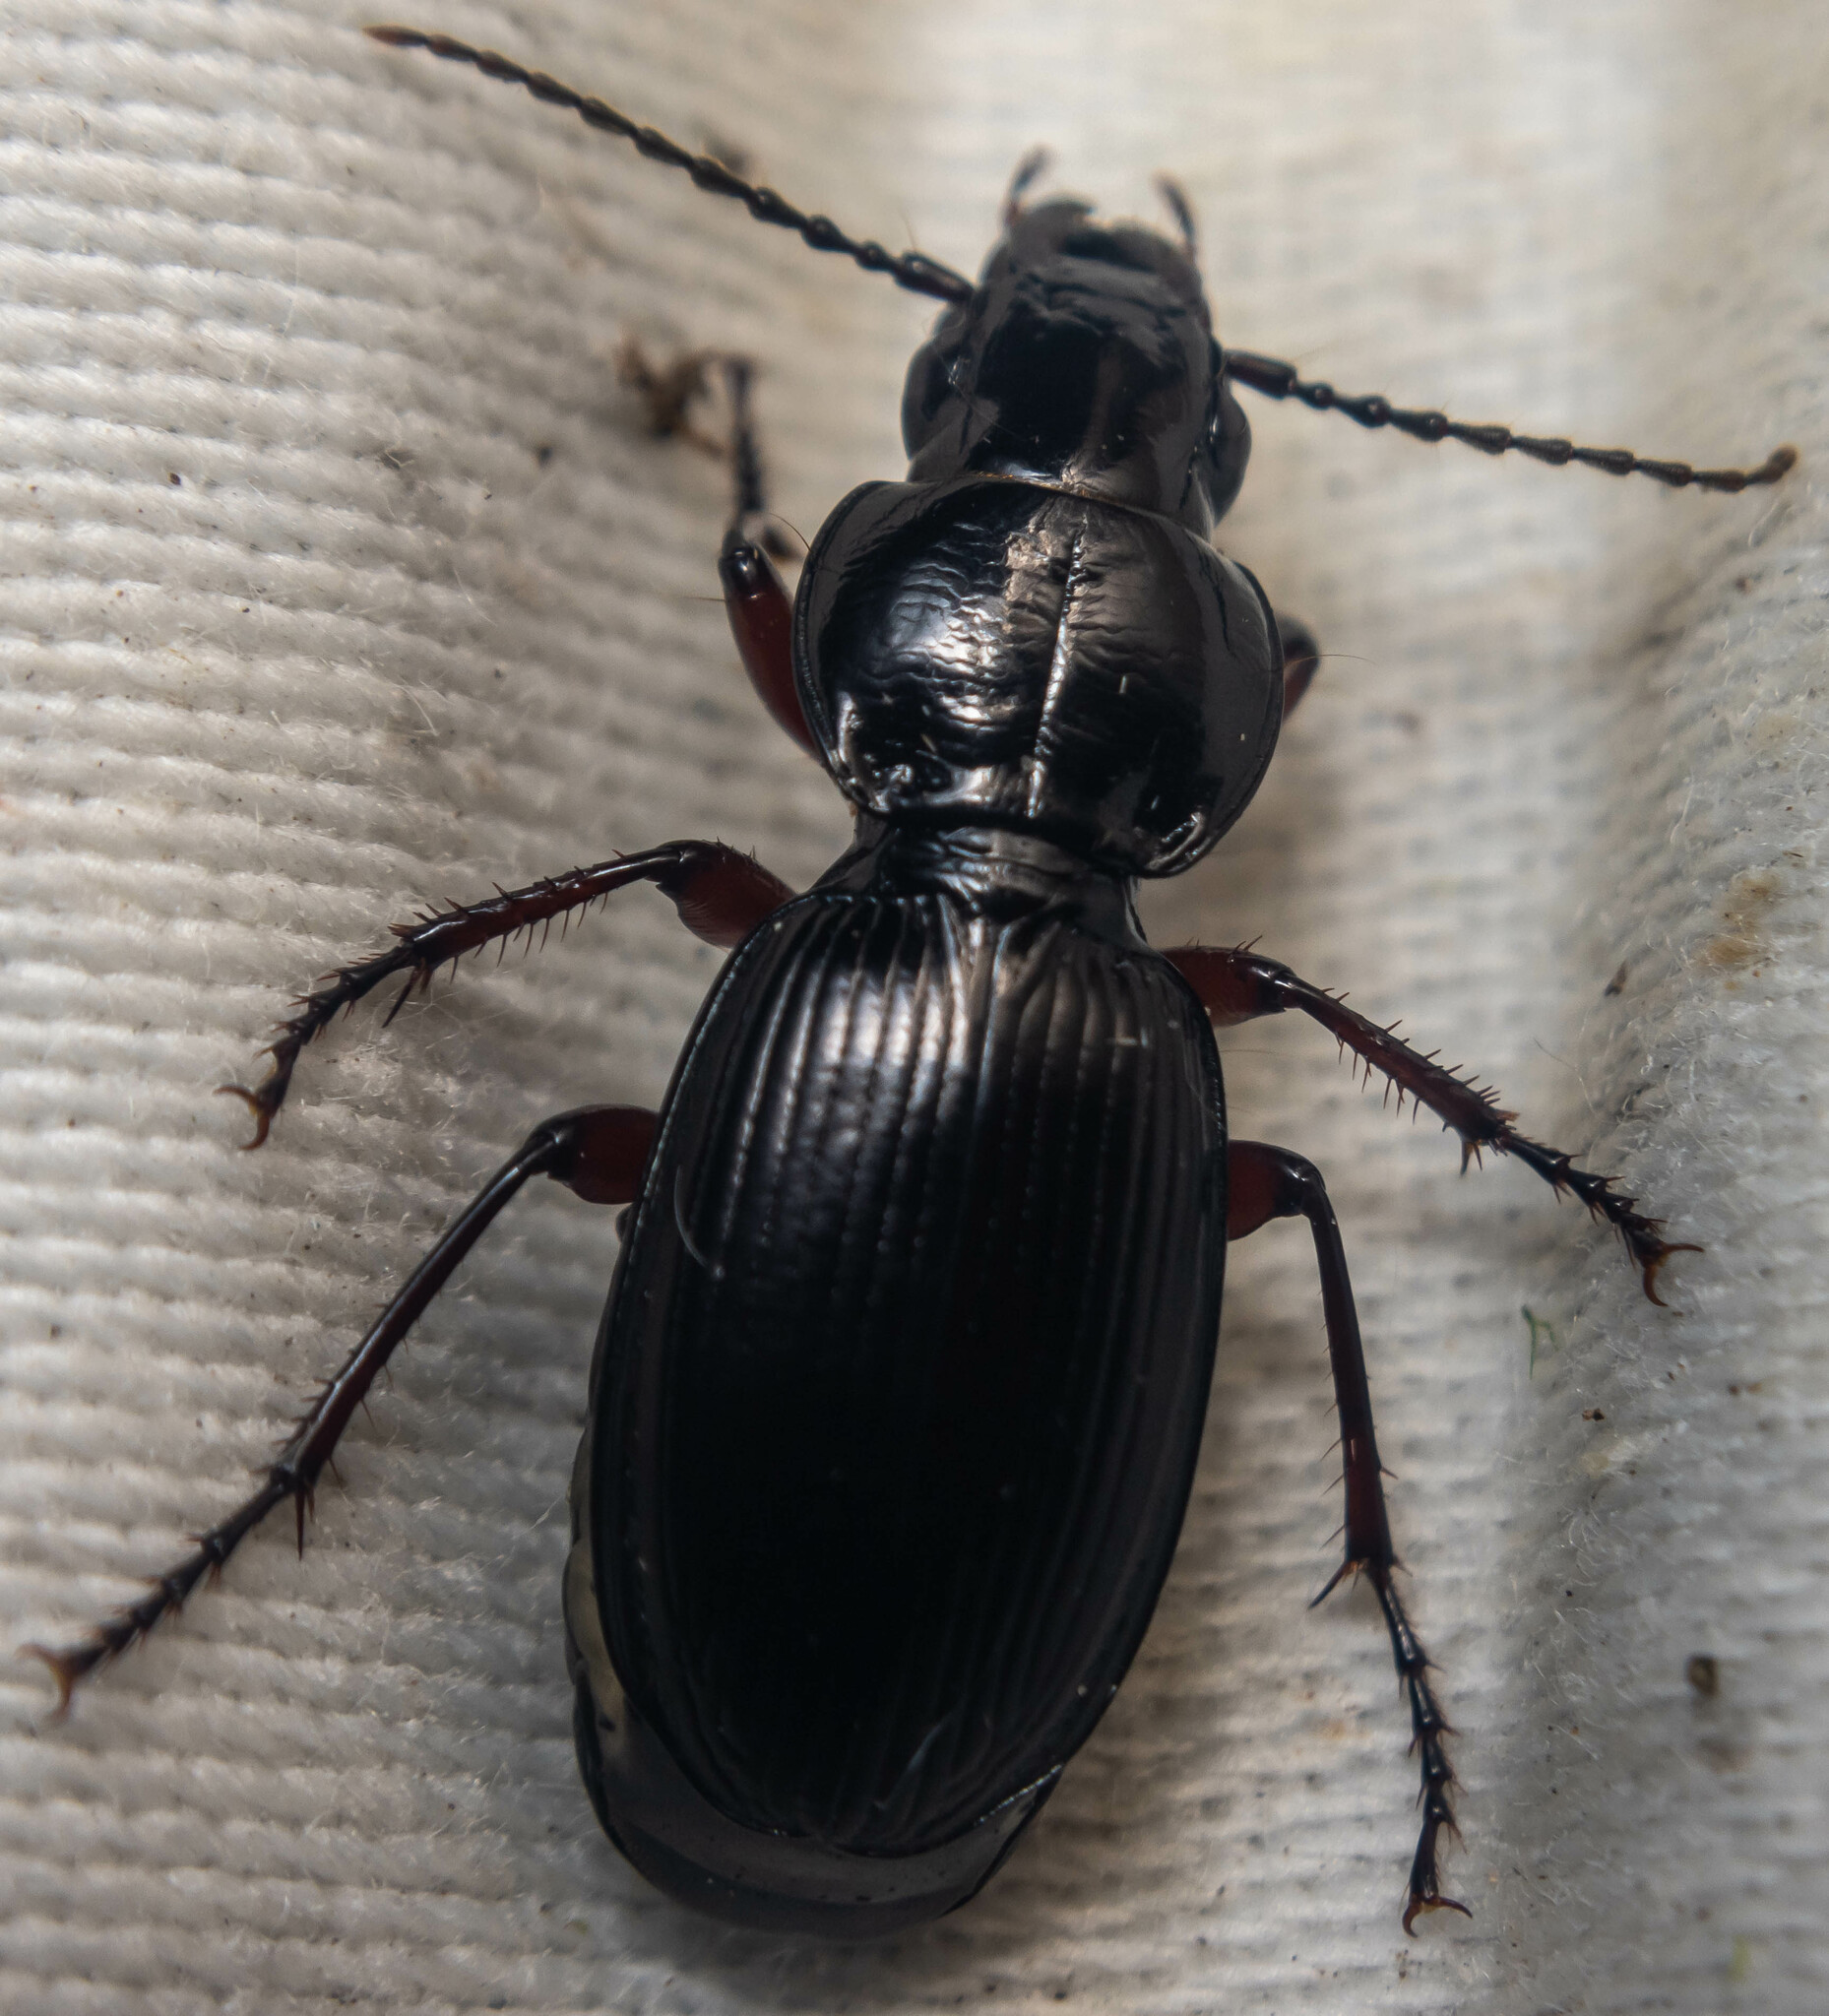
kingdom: Animalia
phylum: Arthropoda
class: Insecta
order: Coleoptera
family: Carabidae
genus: Pterostichus
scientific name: Pterostichus madidus
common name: Black clock
